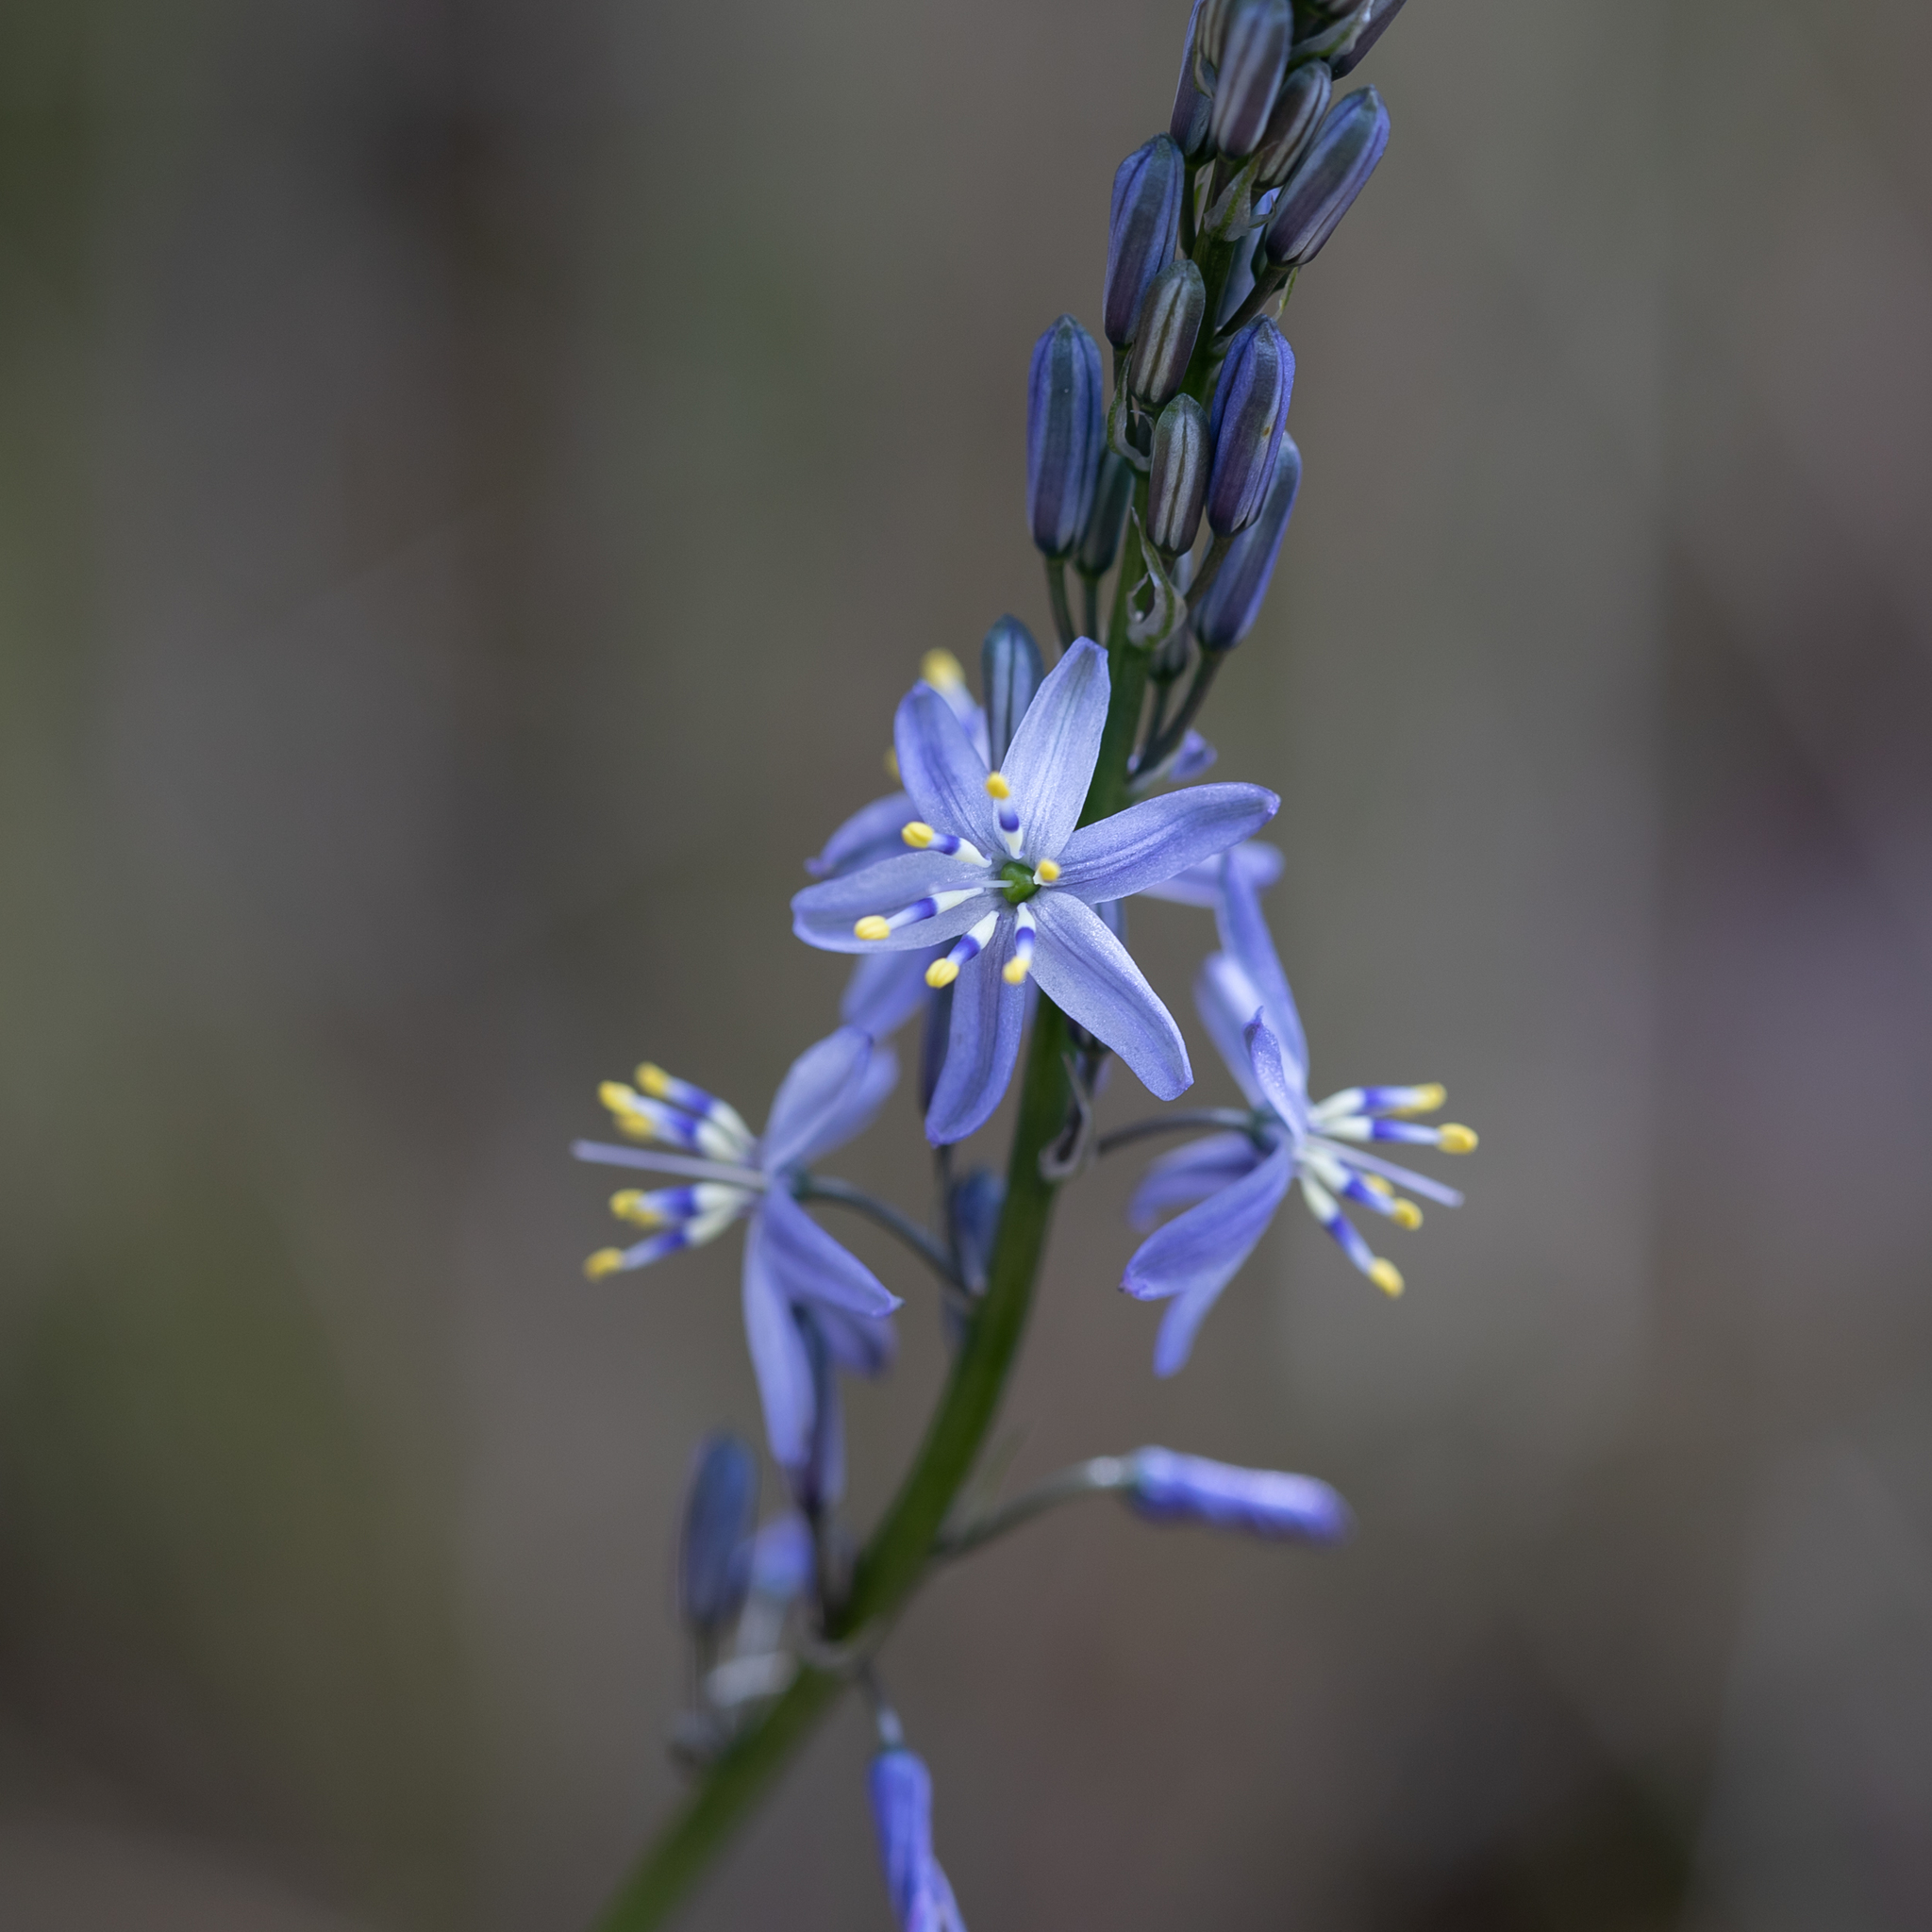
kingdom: Plantae
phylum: Tracheophyta
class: Liliopsida
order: Asparagales
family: Asphodelaceae
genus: Caesia
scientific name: Caesia calliantha
